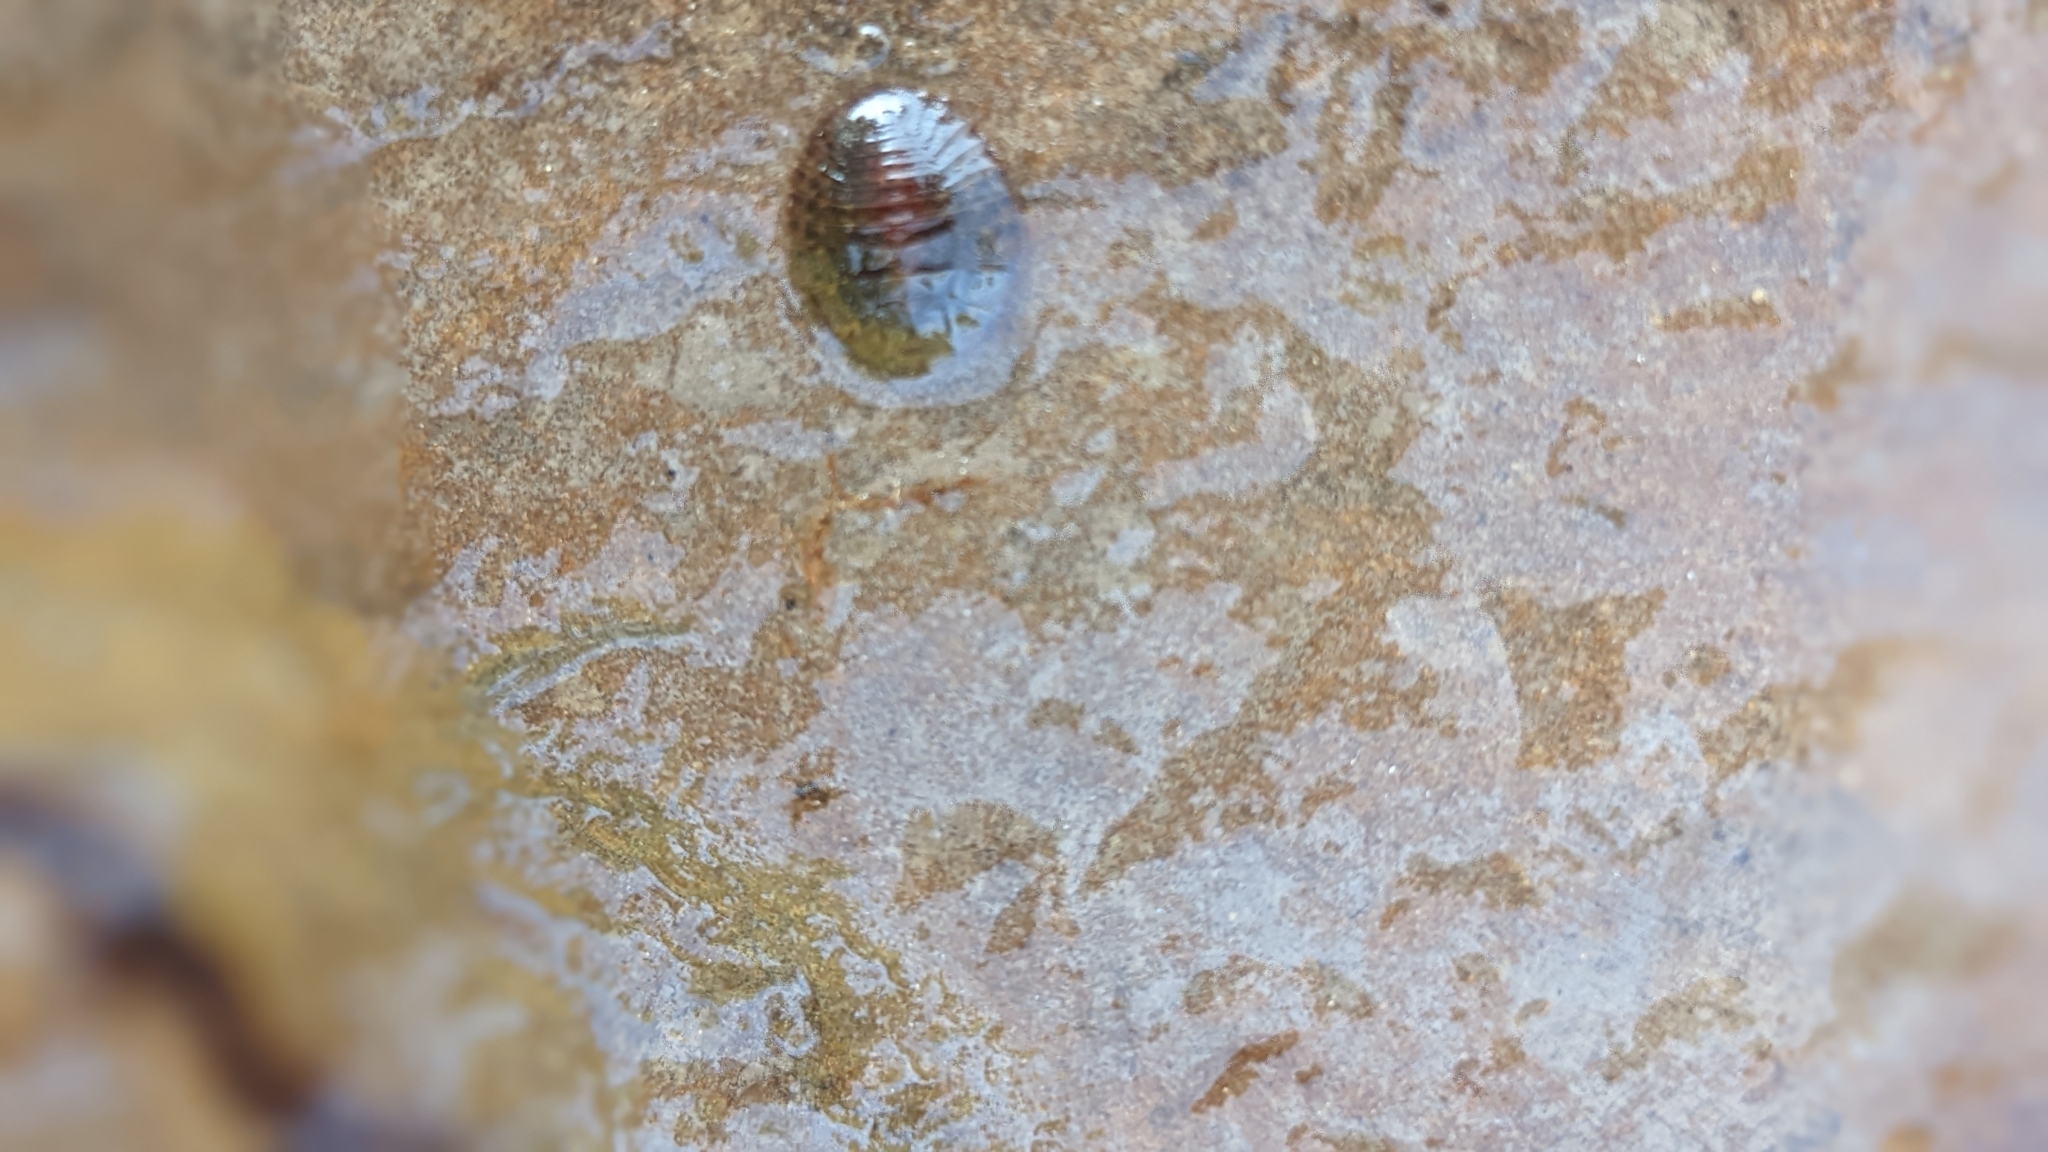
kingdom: Animalia
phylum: Arthropoda
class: Insecta
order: Coleoptera
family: Psephenidae
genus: Psephenus
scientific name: Psephenus herricki
